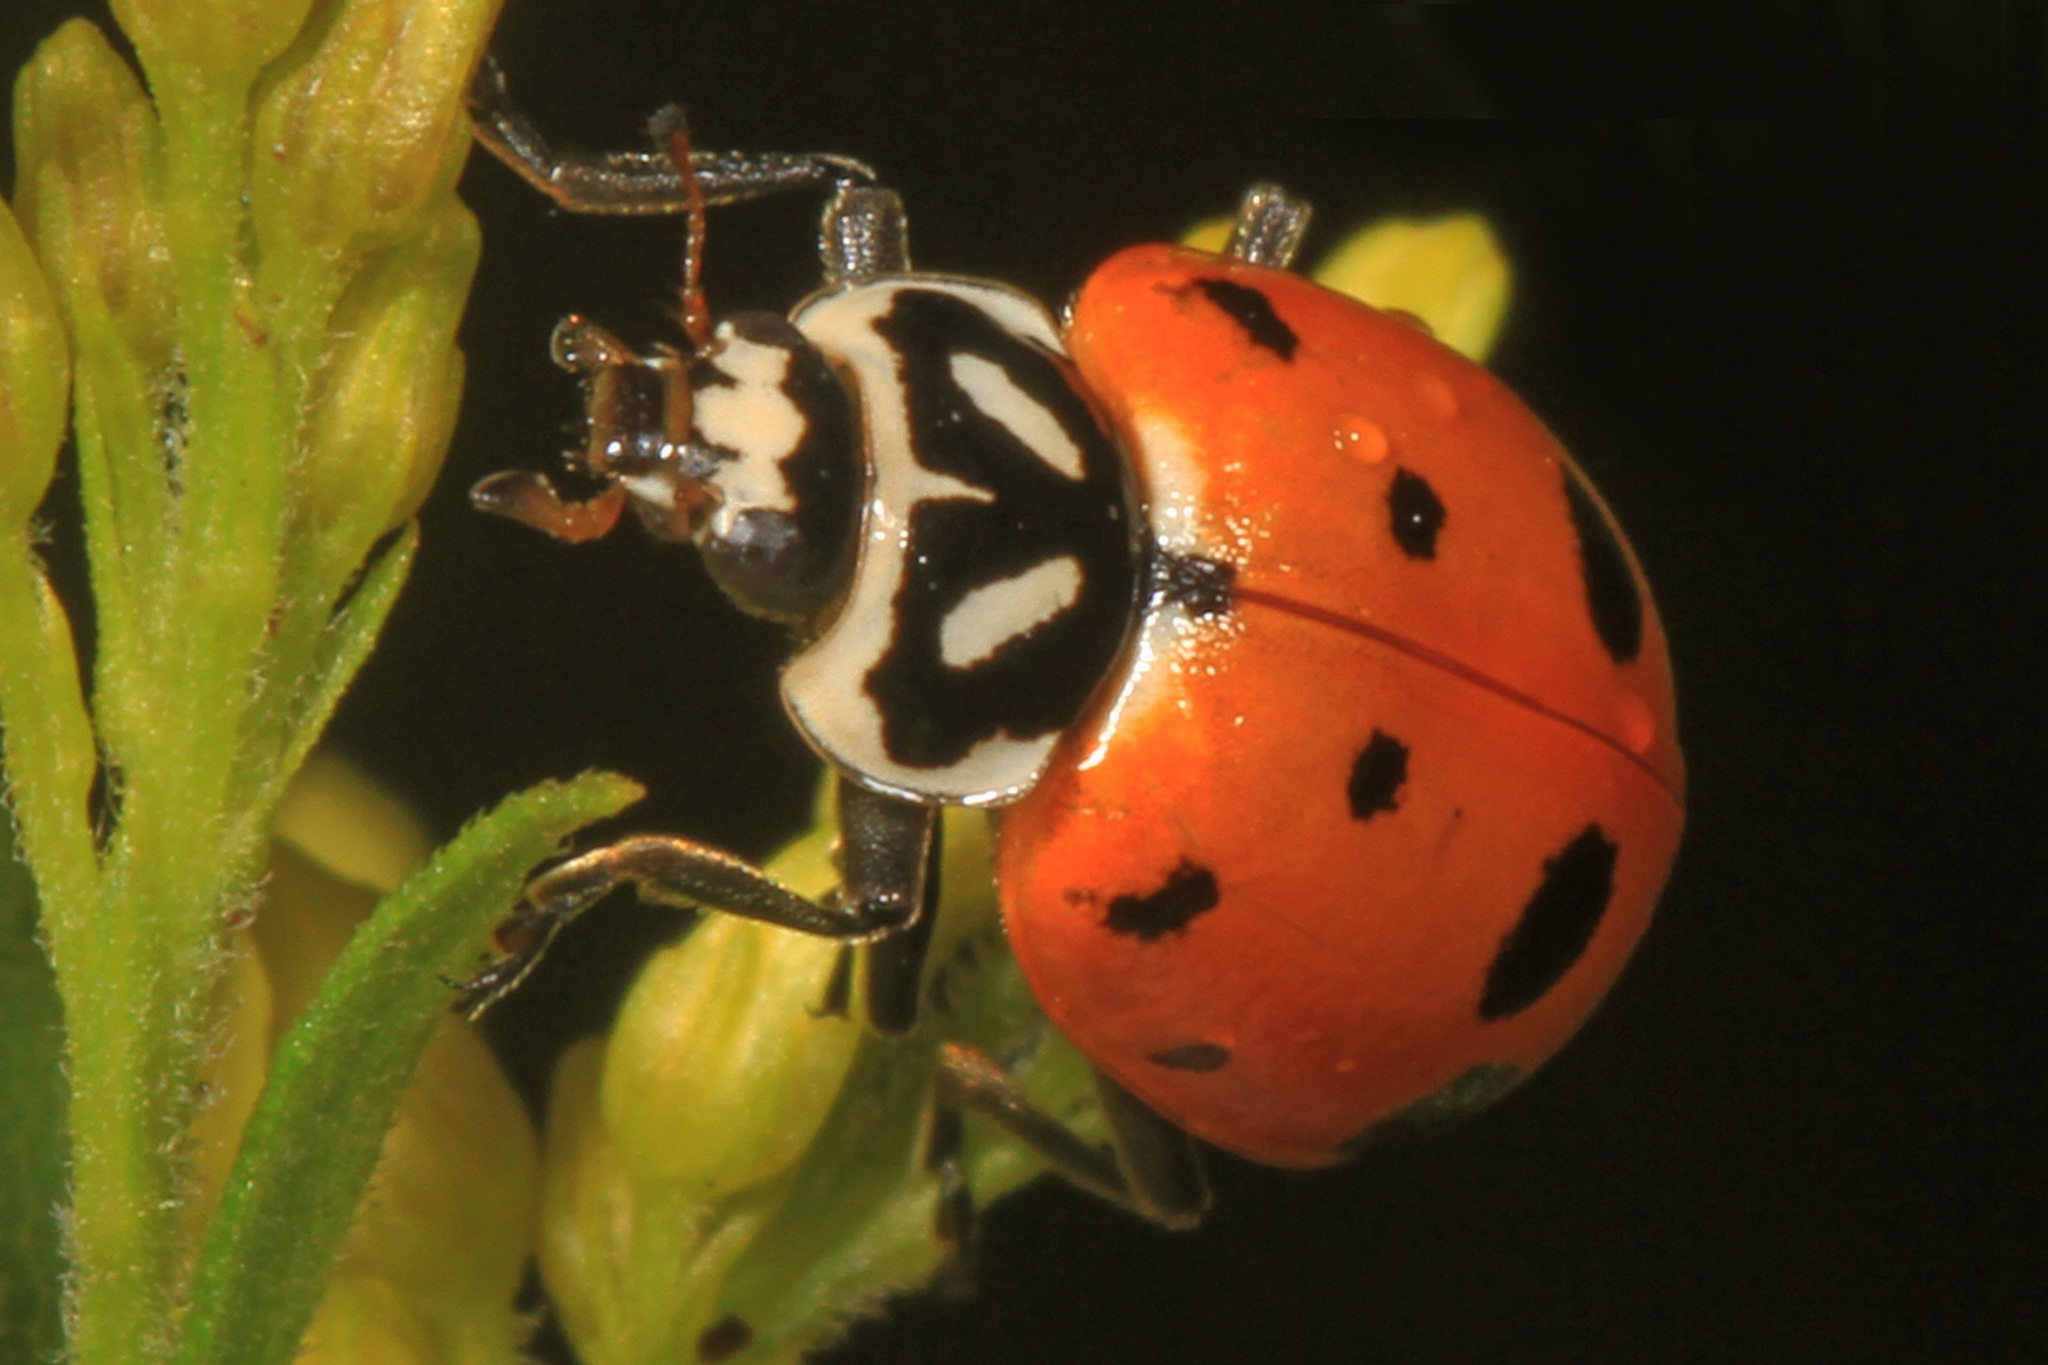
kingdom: Animalia
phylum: Arthropoda
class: Insecta
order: Coleoptera
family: Coccinellidae
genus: Hippodamia
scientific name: Hippodamia convergens
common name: Convergent lady beetle
